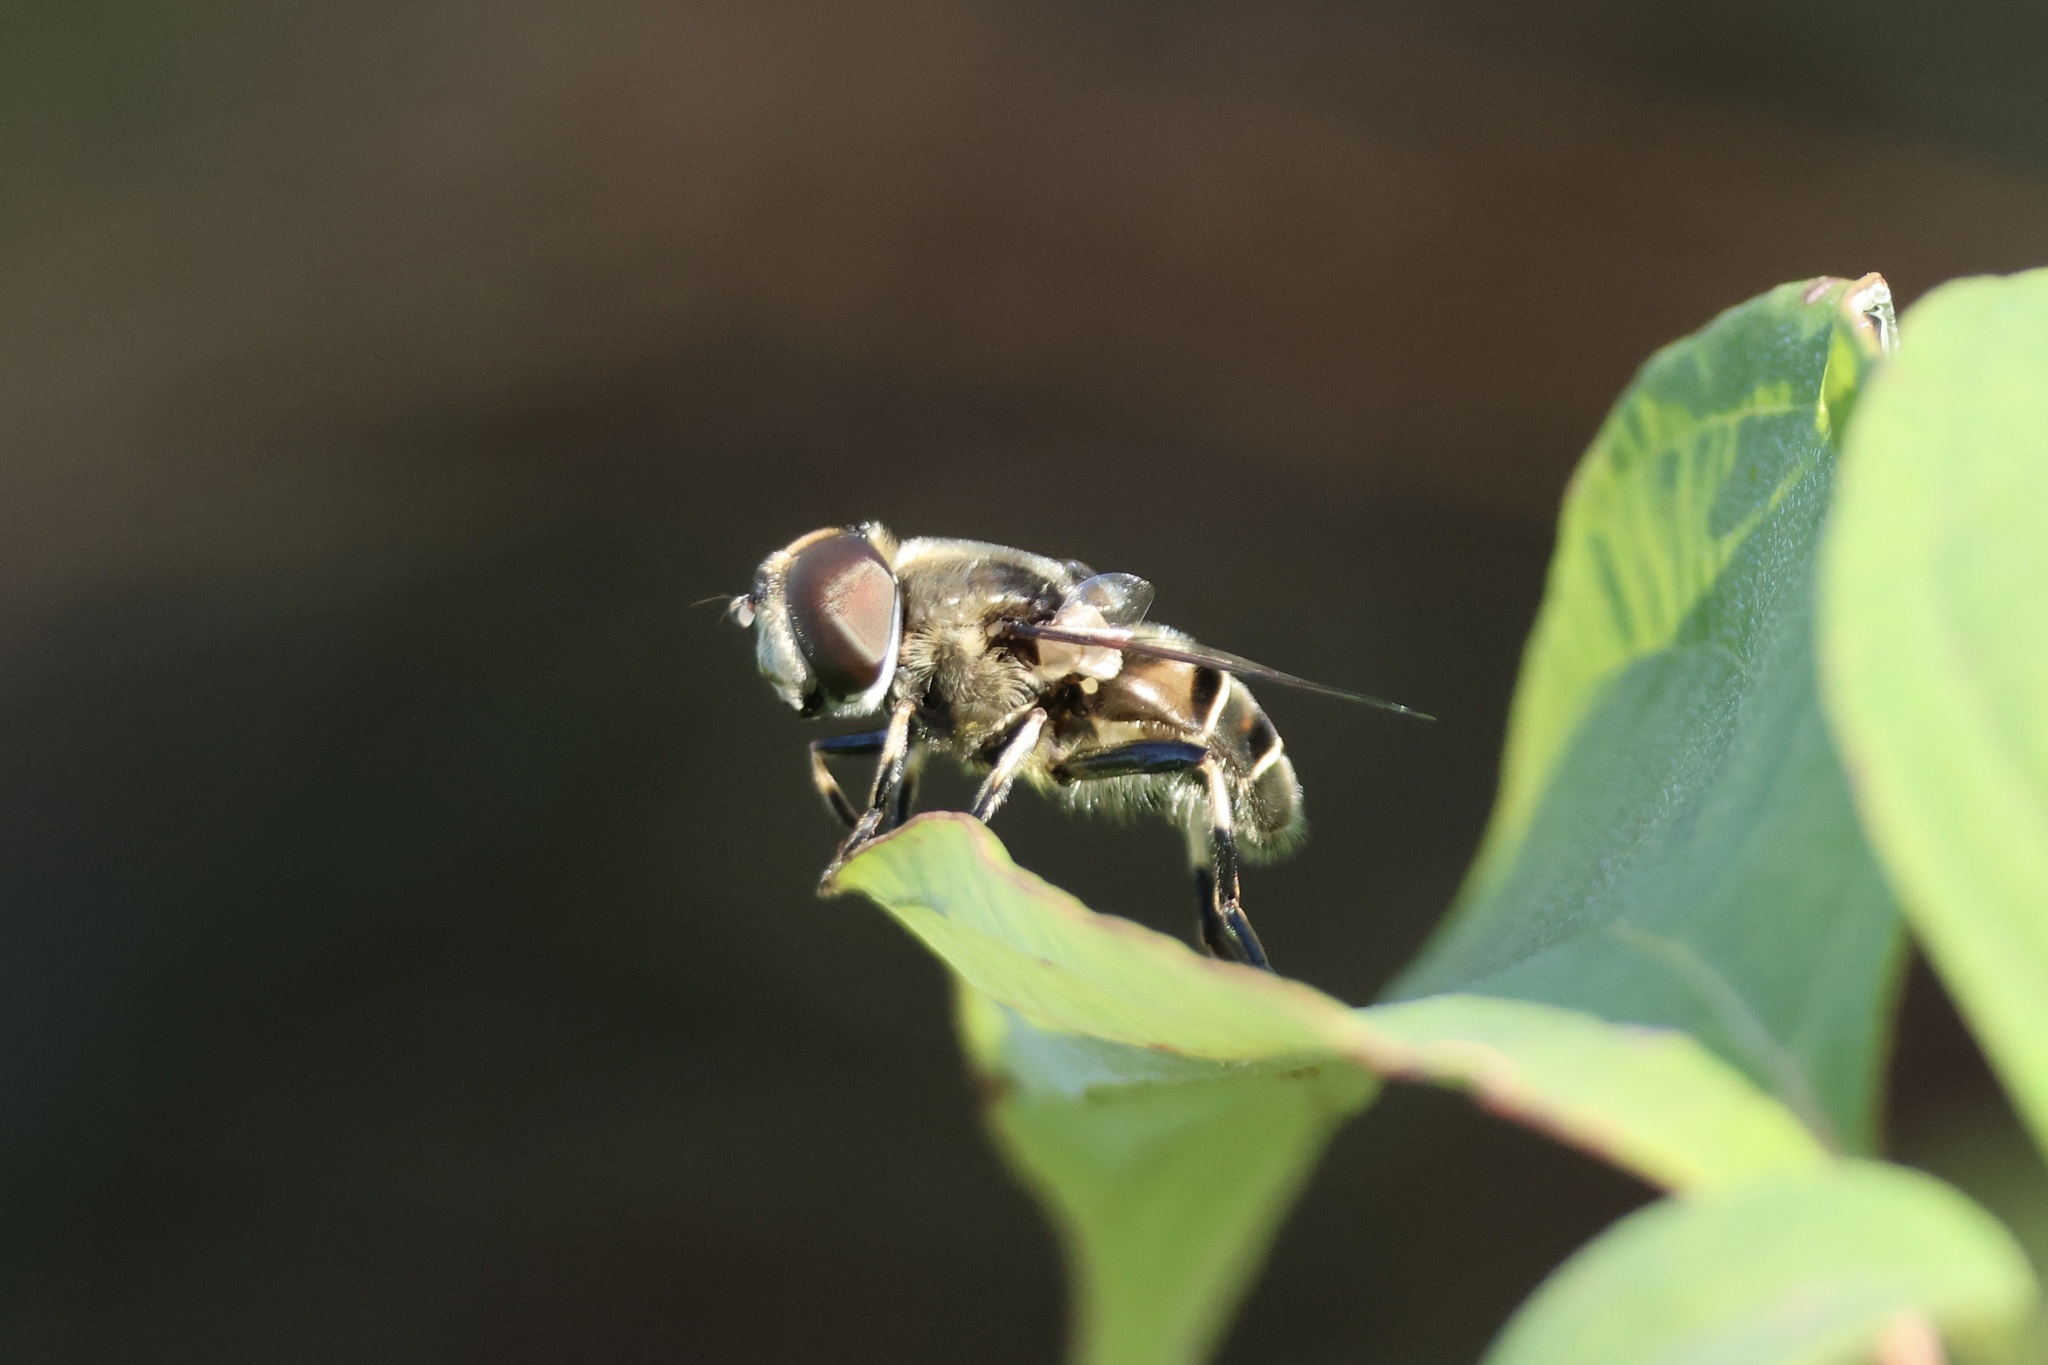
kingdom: Animalia
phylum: Arthropoda
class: Insecta
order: Diptera
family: Syrphidae
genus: Eristalis
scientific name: Eristalis dimidiata
